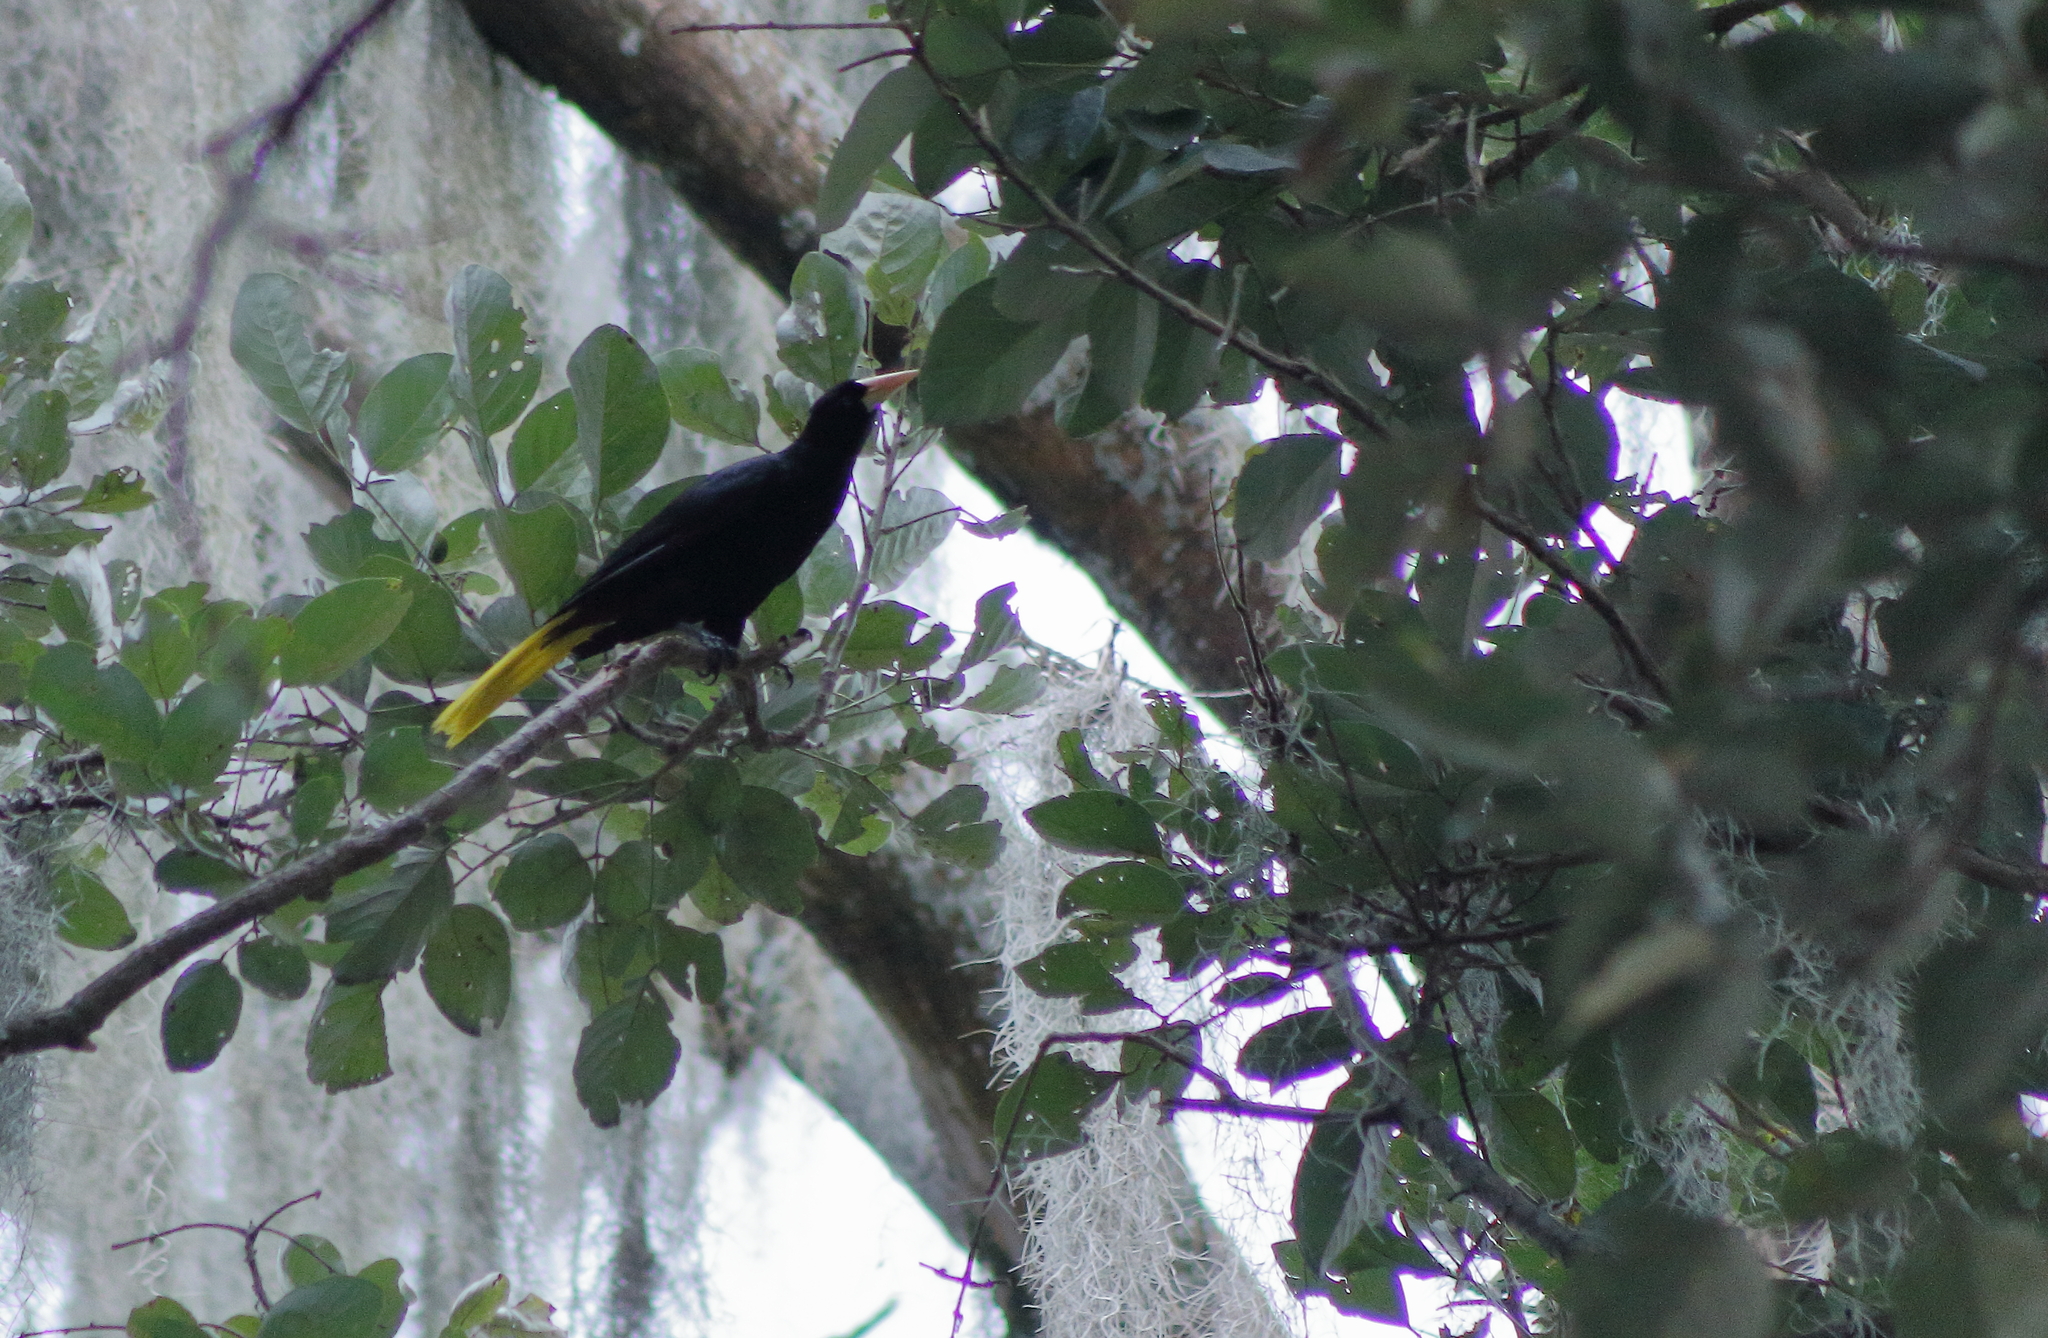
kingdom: Animalia
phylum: Chordata
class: Aves
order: Passeriformes
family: Icteridae
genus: Psarocolius
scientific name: Psarocolius decumanus
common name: Crested oropendola
